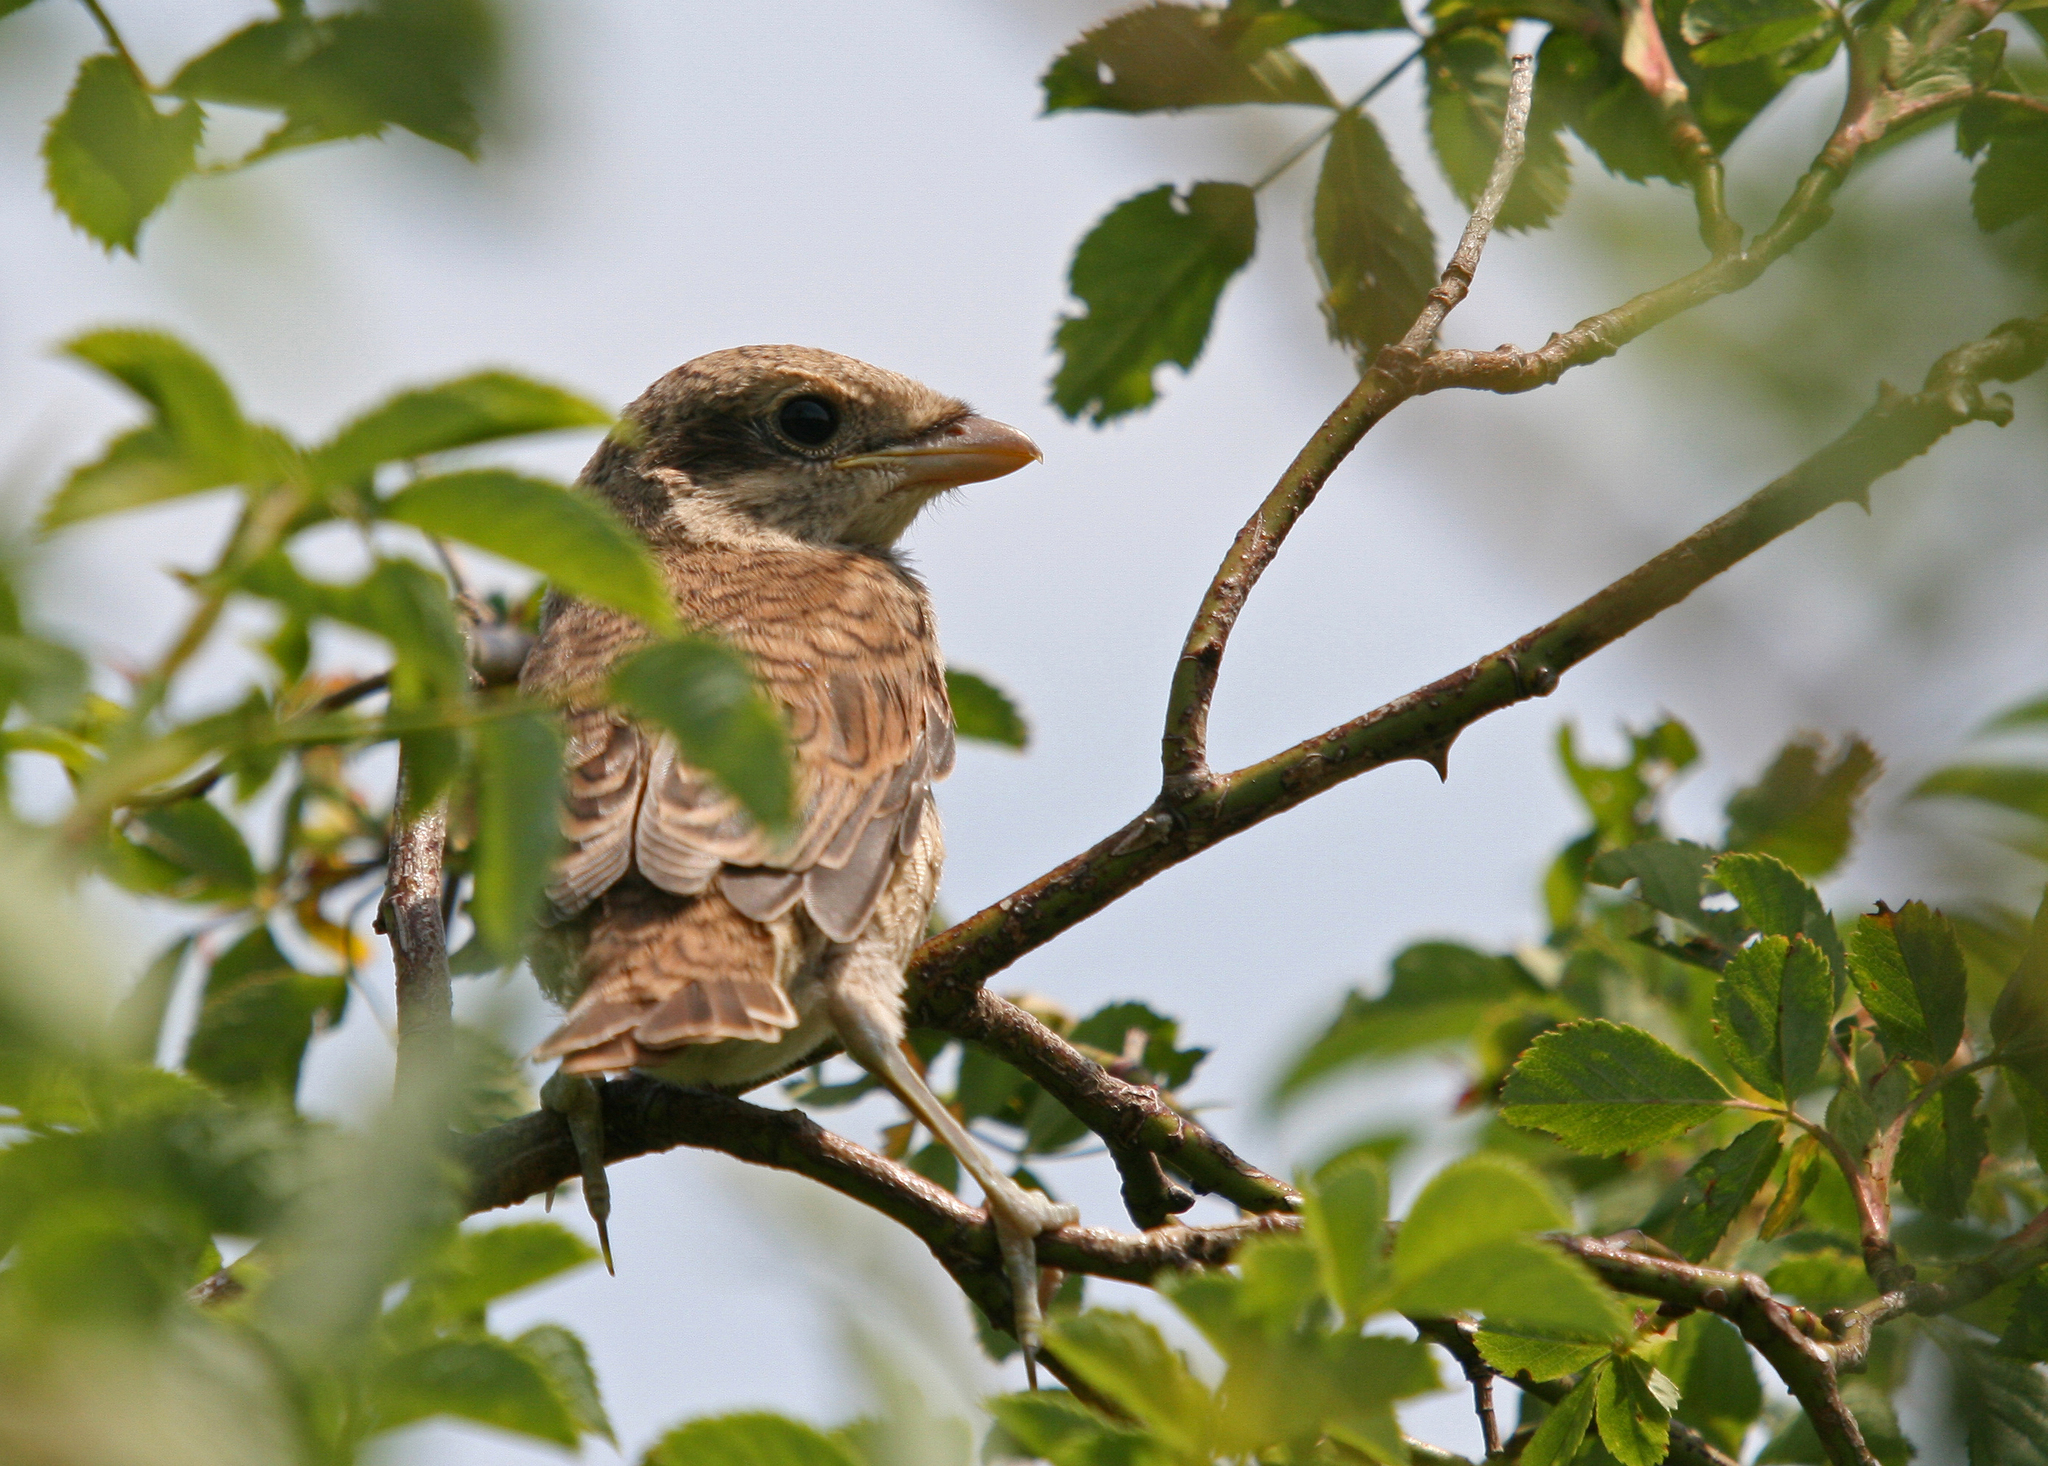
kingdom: Animalia
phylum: Chordata
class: Aves
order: Passeriformes
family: Laniidae
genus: Lanius
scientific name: Lanius collurio
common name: Red-backed shrike
